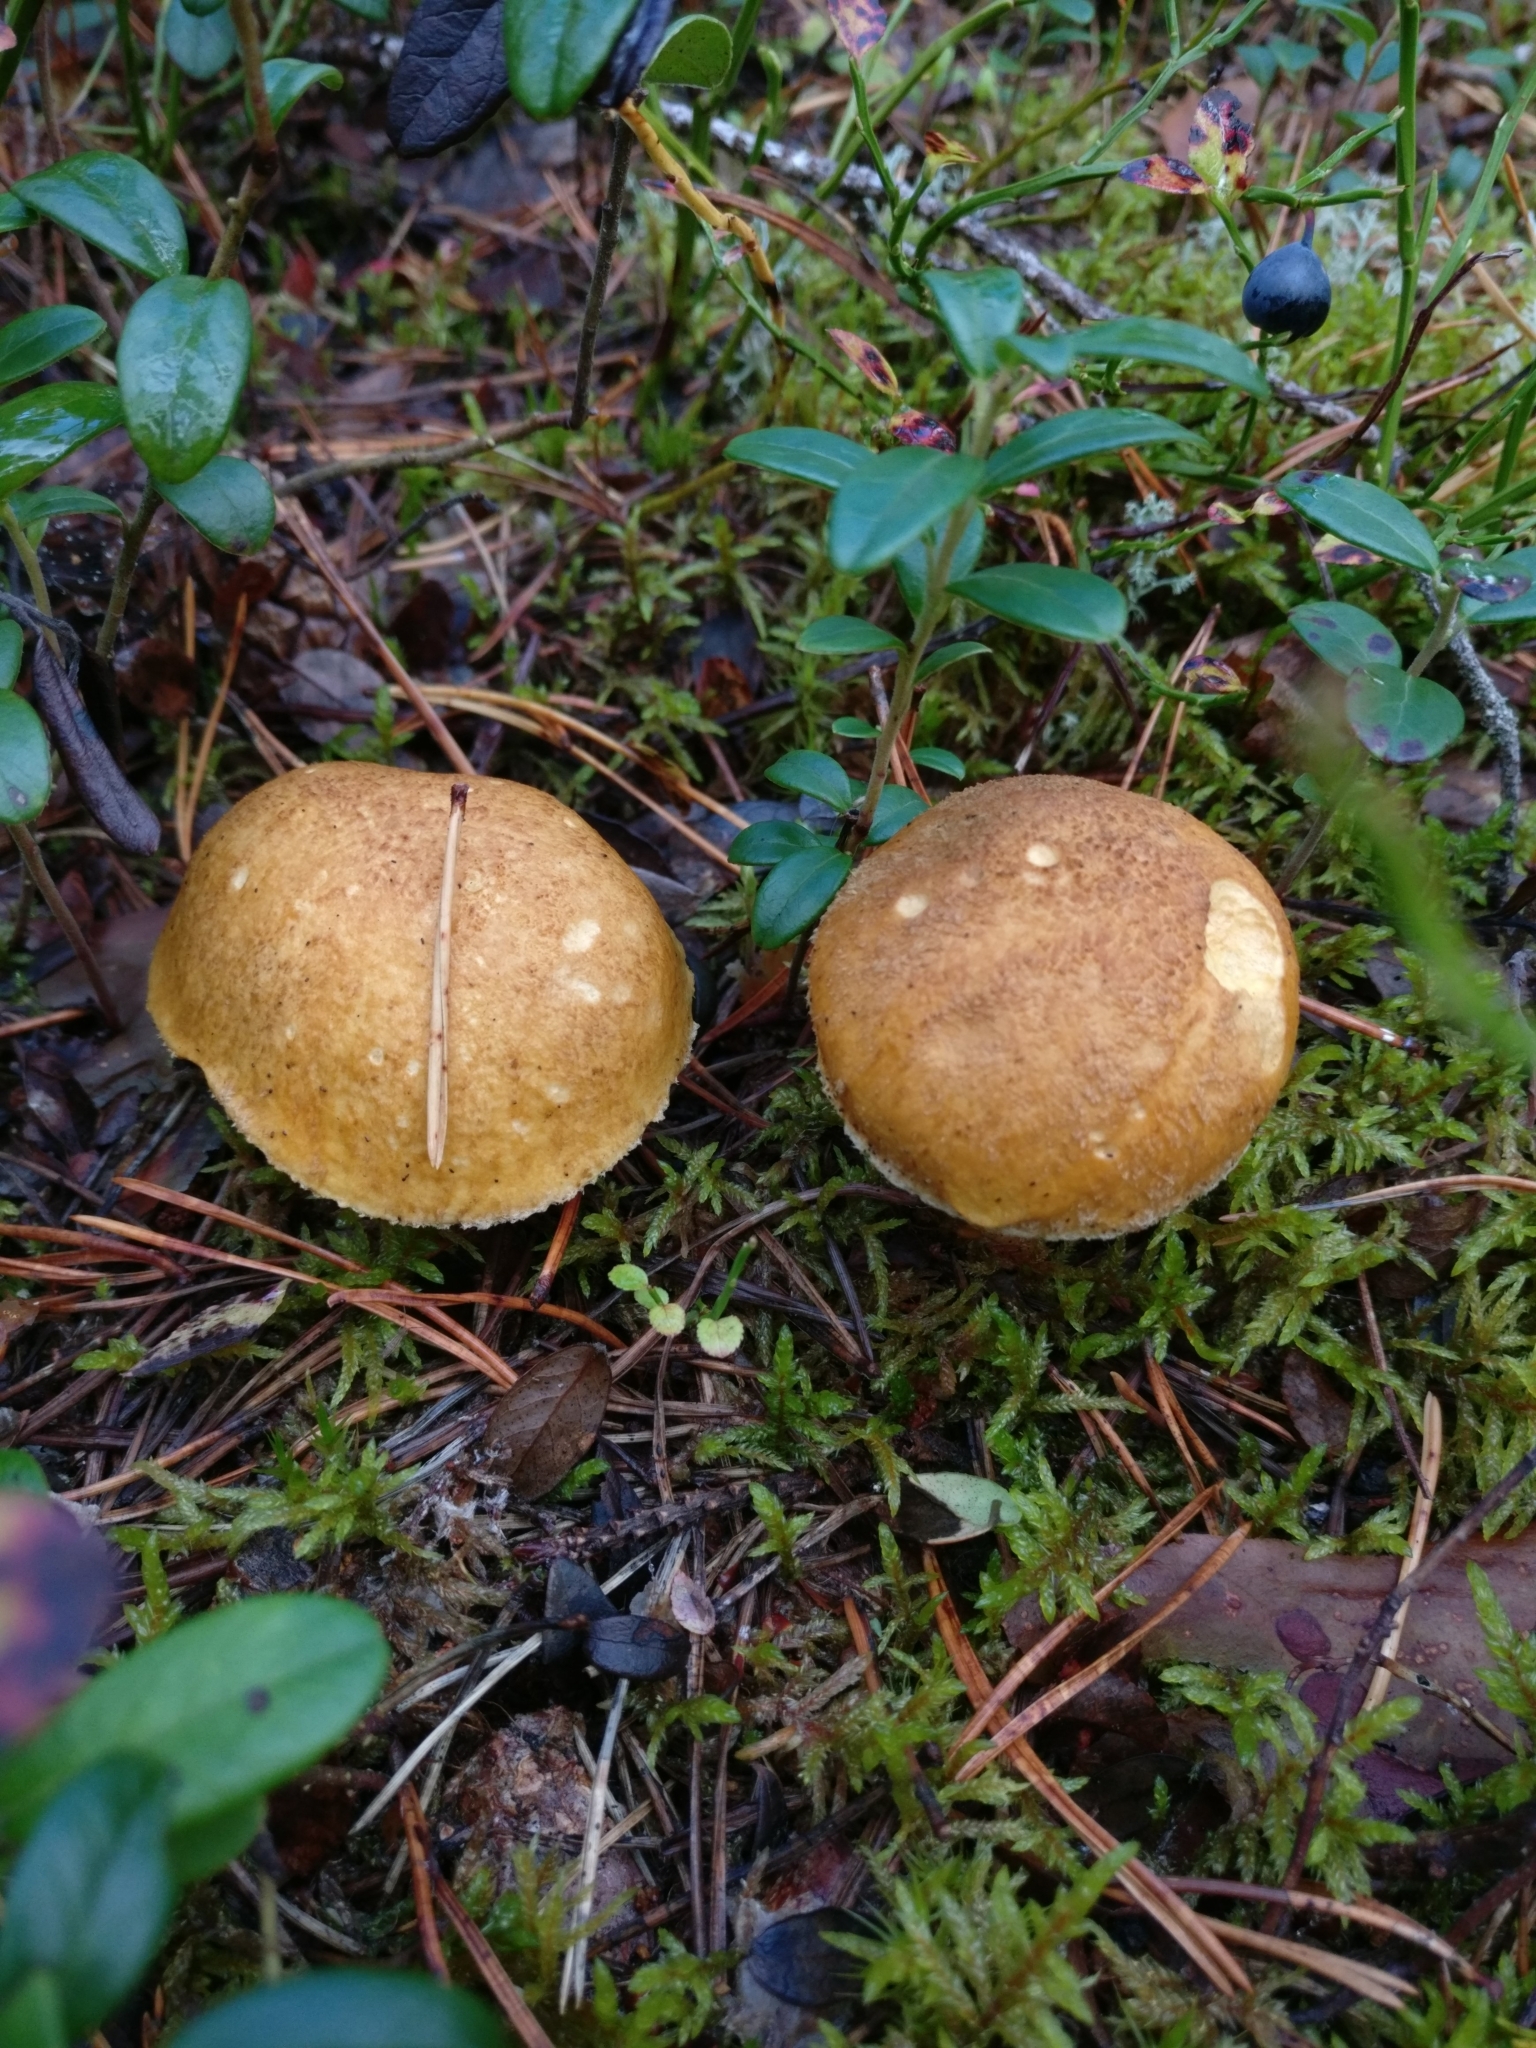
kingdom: Fungi
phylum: Basidiomycota
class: Agaricomycetes
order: Boletales
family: Suillaceae
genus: Suillus
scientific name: Suillus variegatus
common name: Velvet bolete
